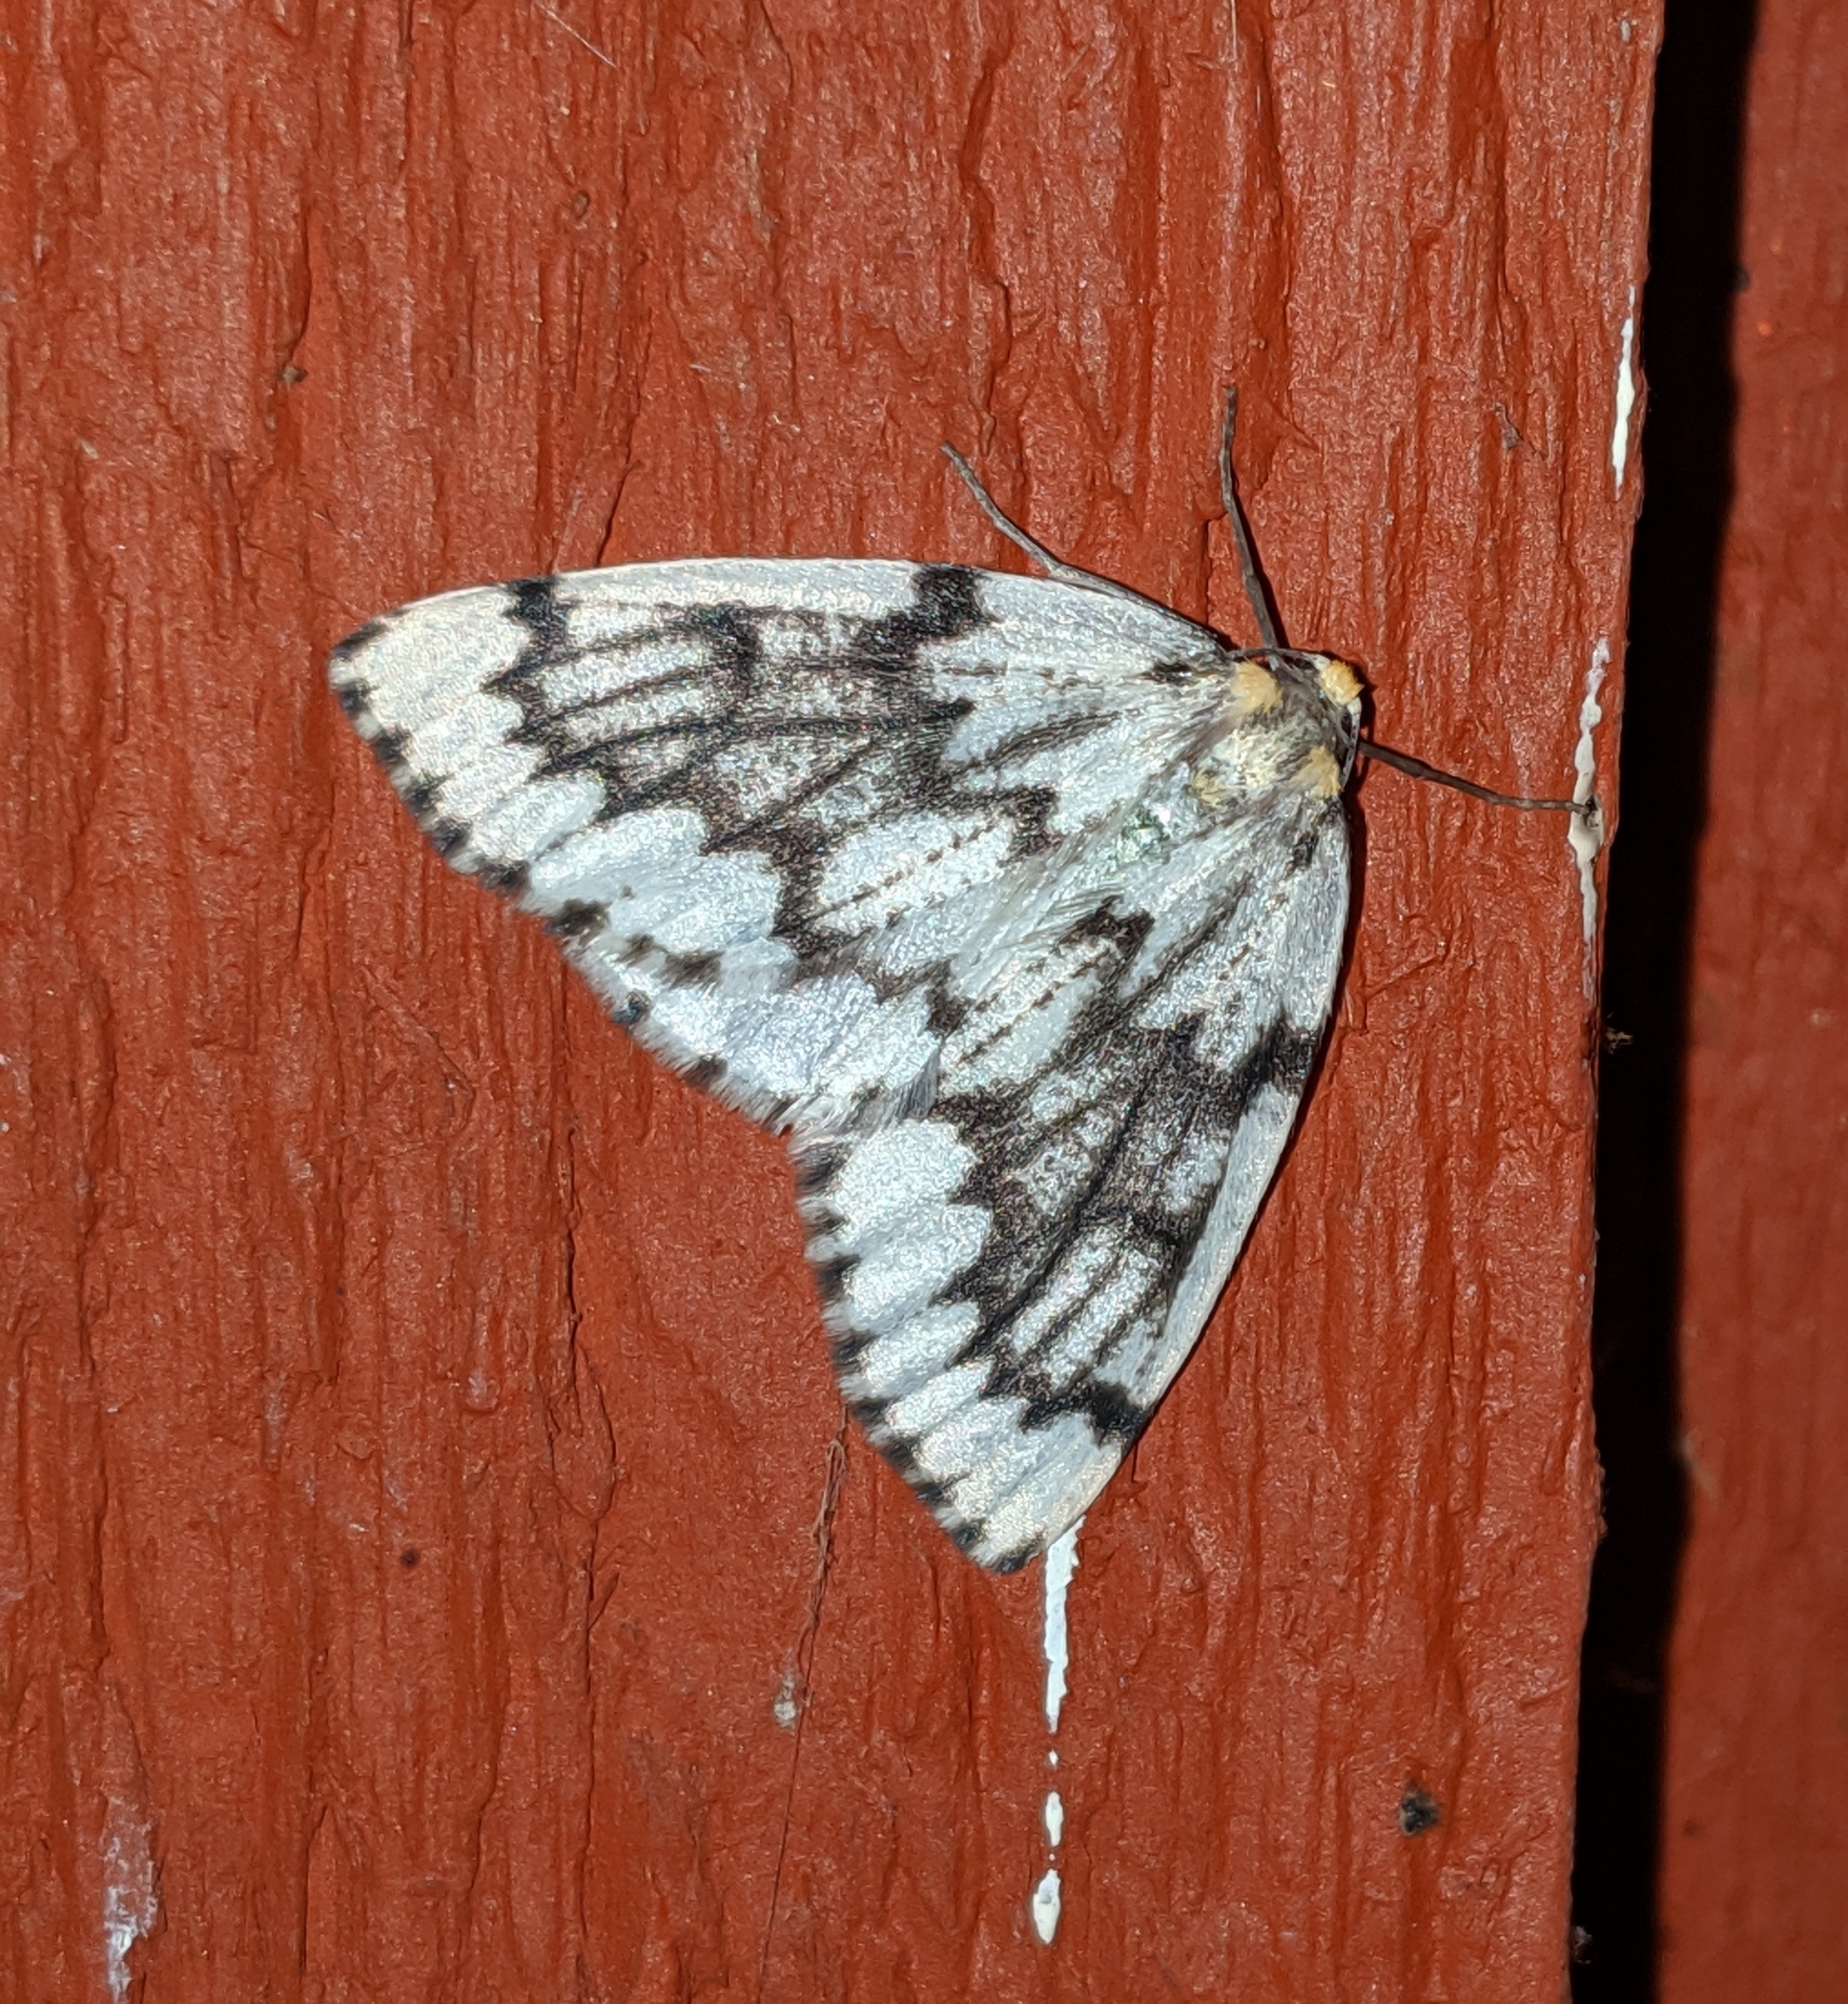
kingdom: Animalia
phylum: Arthropoda
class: Insecta
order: Lepidoptera
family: Geometridae
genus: Nepytia
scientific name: Nepytia phantasmaria
